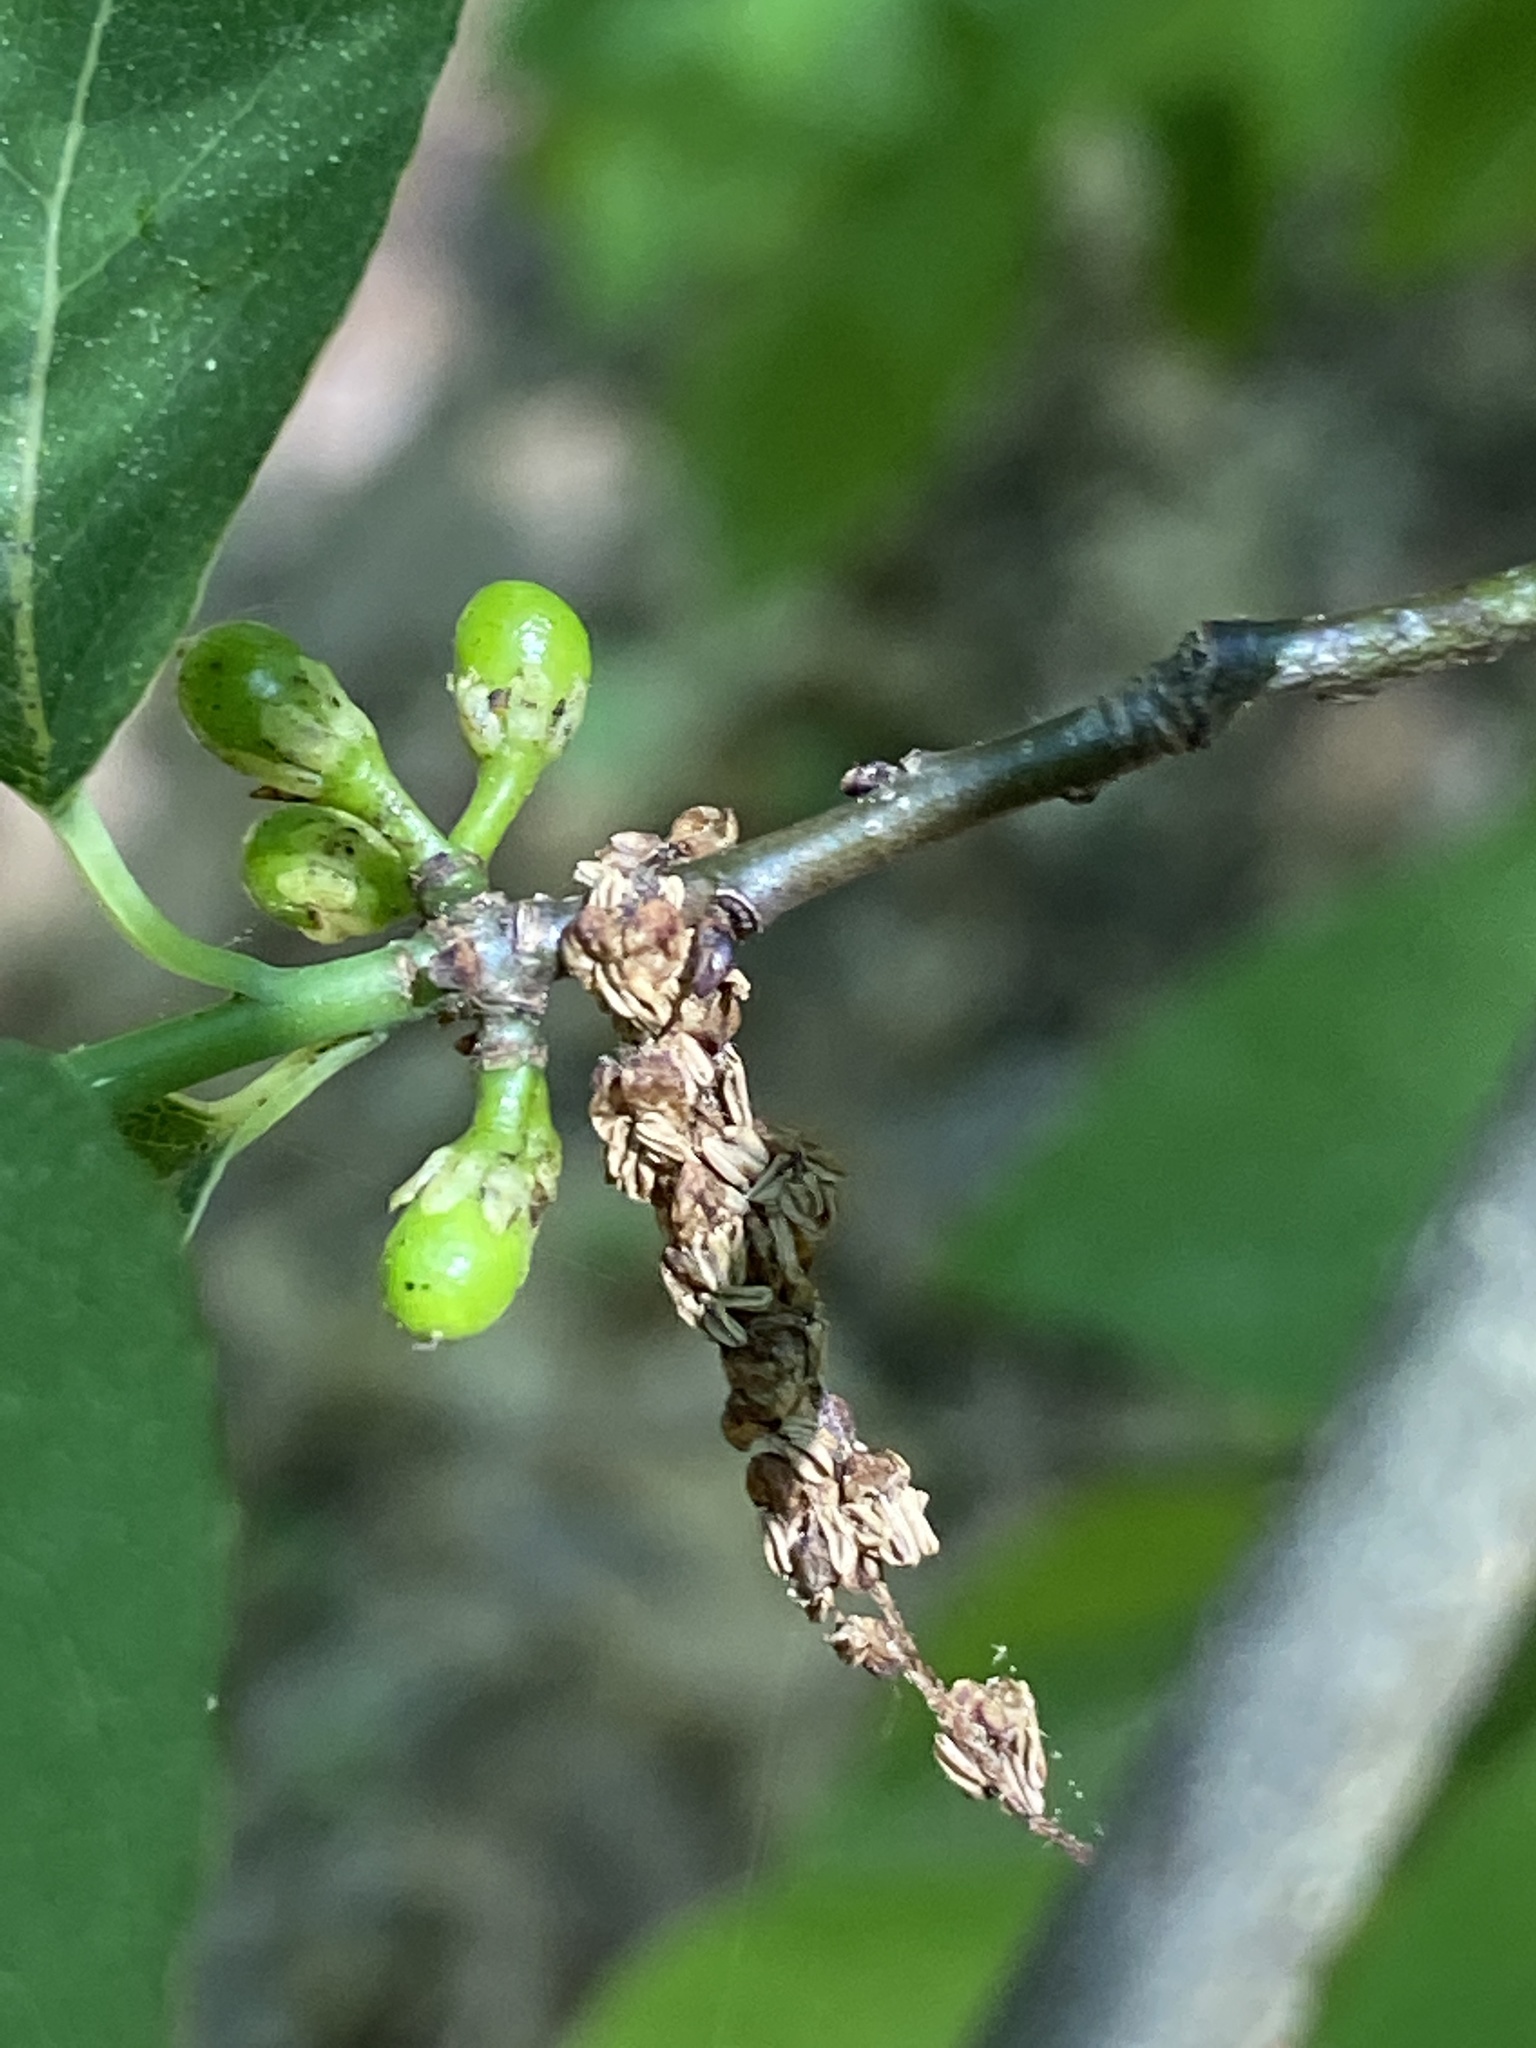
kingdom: Plantae
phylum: Tracheophyta
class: Magnoliopsida
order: Laurales
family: Lauraceae
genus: Lindera
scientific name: Lindera benzoin
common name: Spicebush
